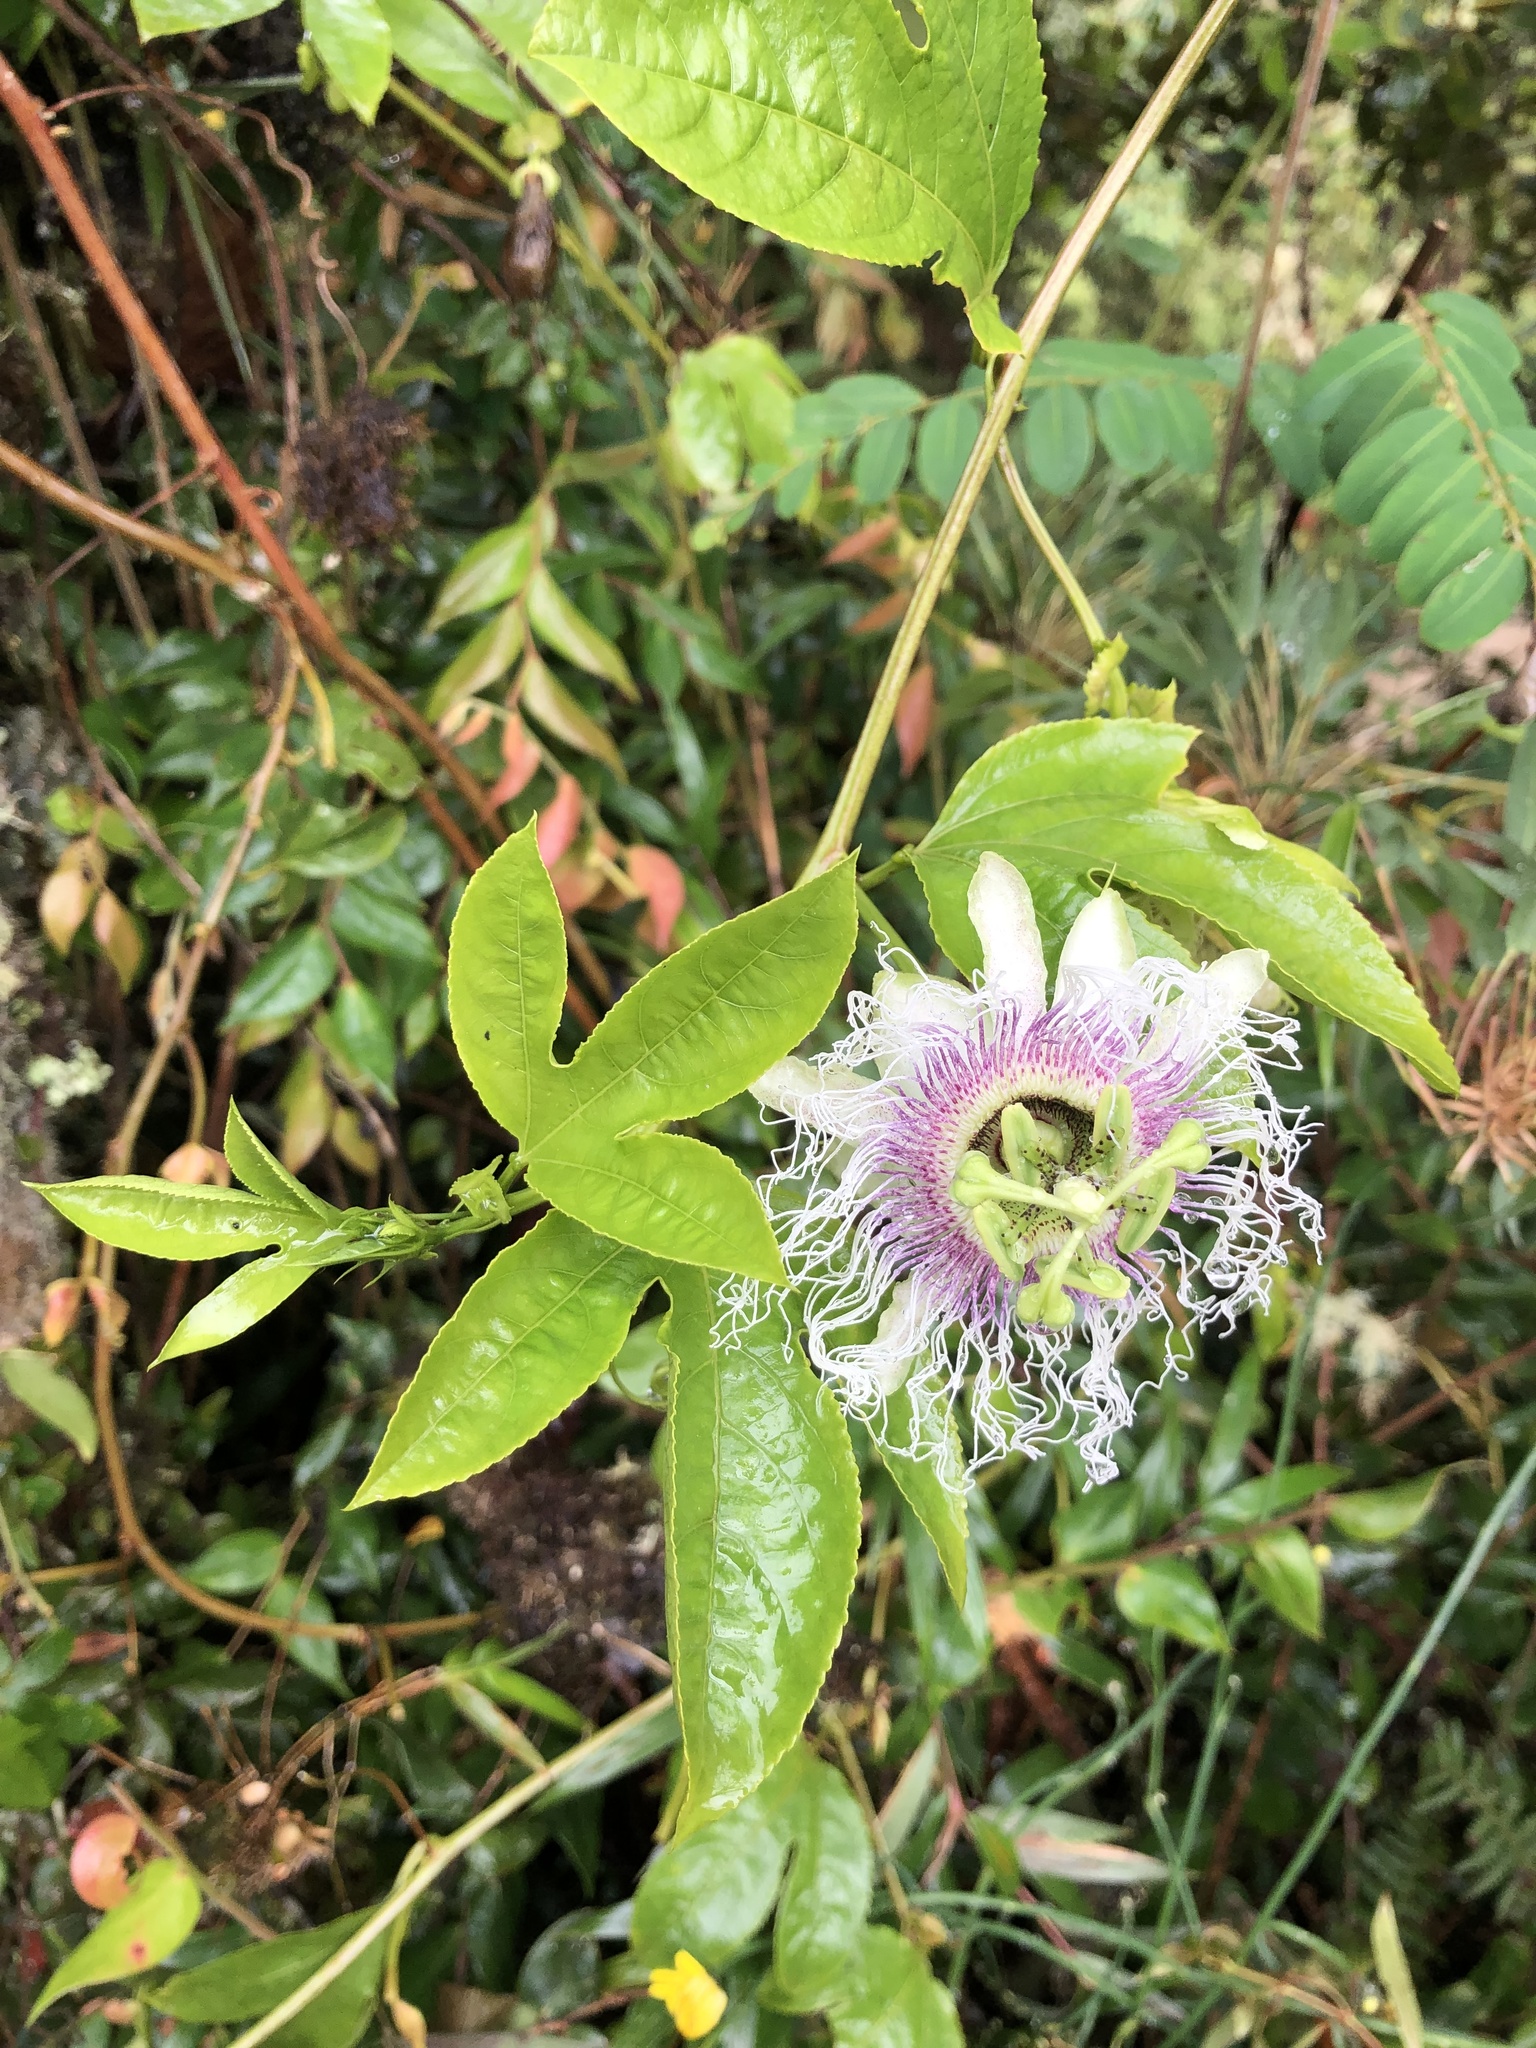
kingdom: Plantae
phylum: Tracheophyta
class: Magnoliopsida
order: Malpighiales
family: Passifloraceae
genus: Passiflora
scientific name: Passiflora edulis
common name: Purple granadilla
